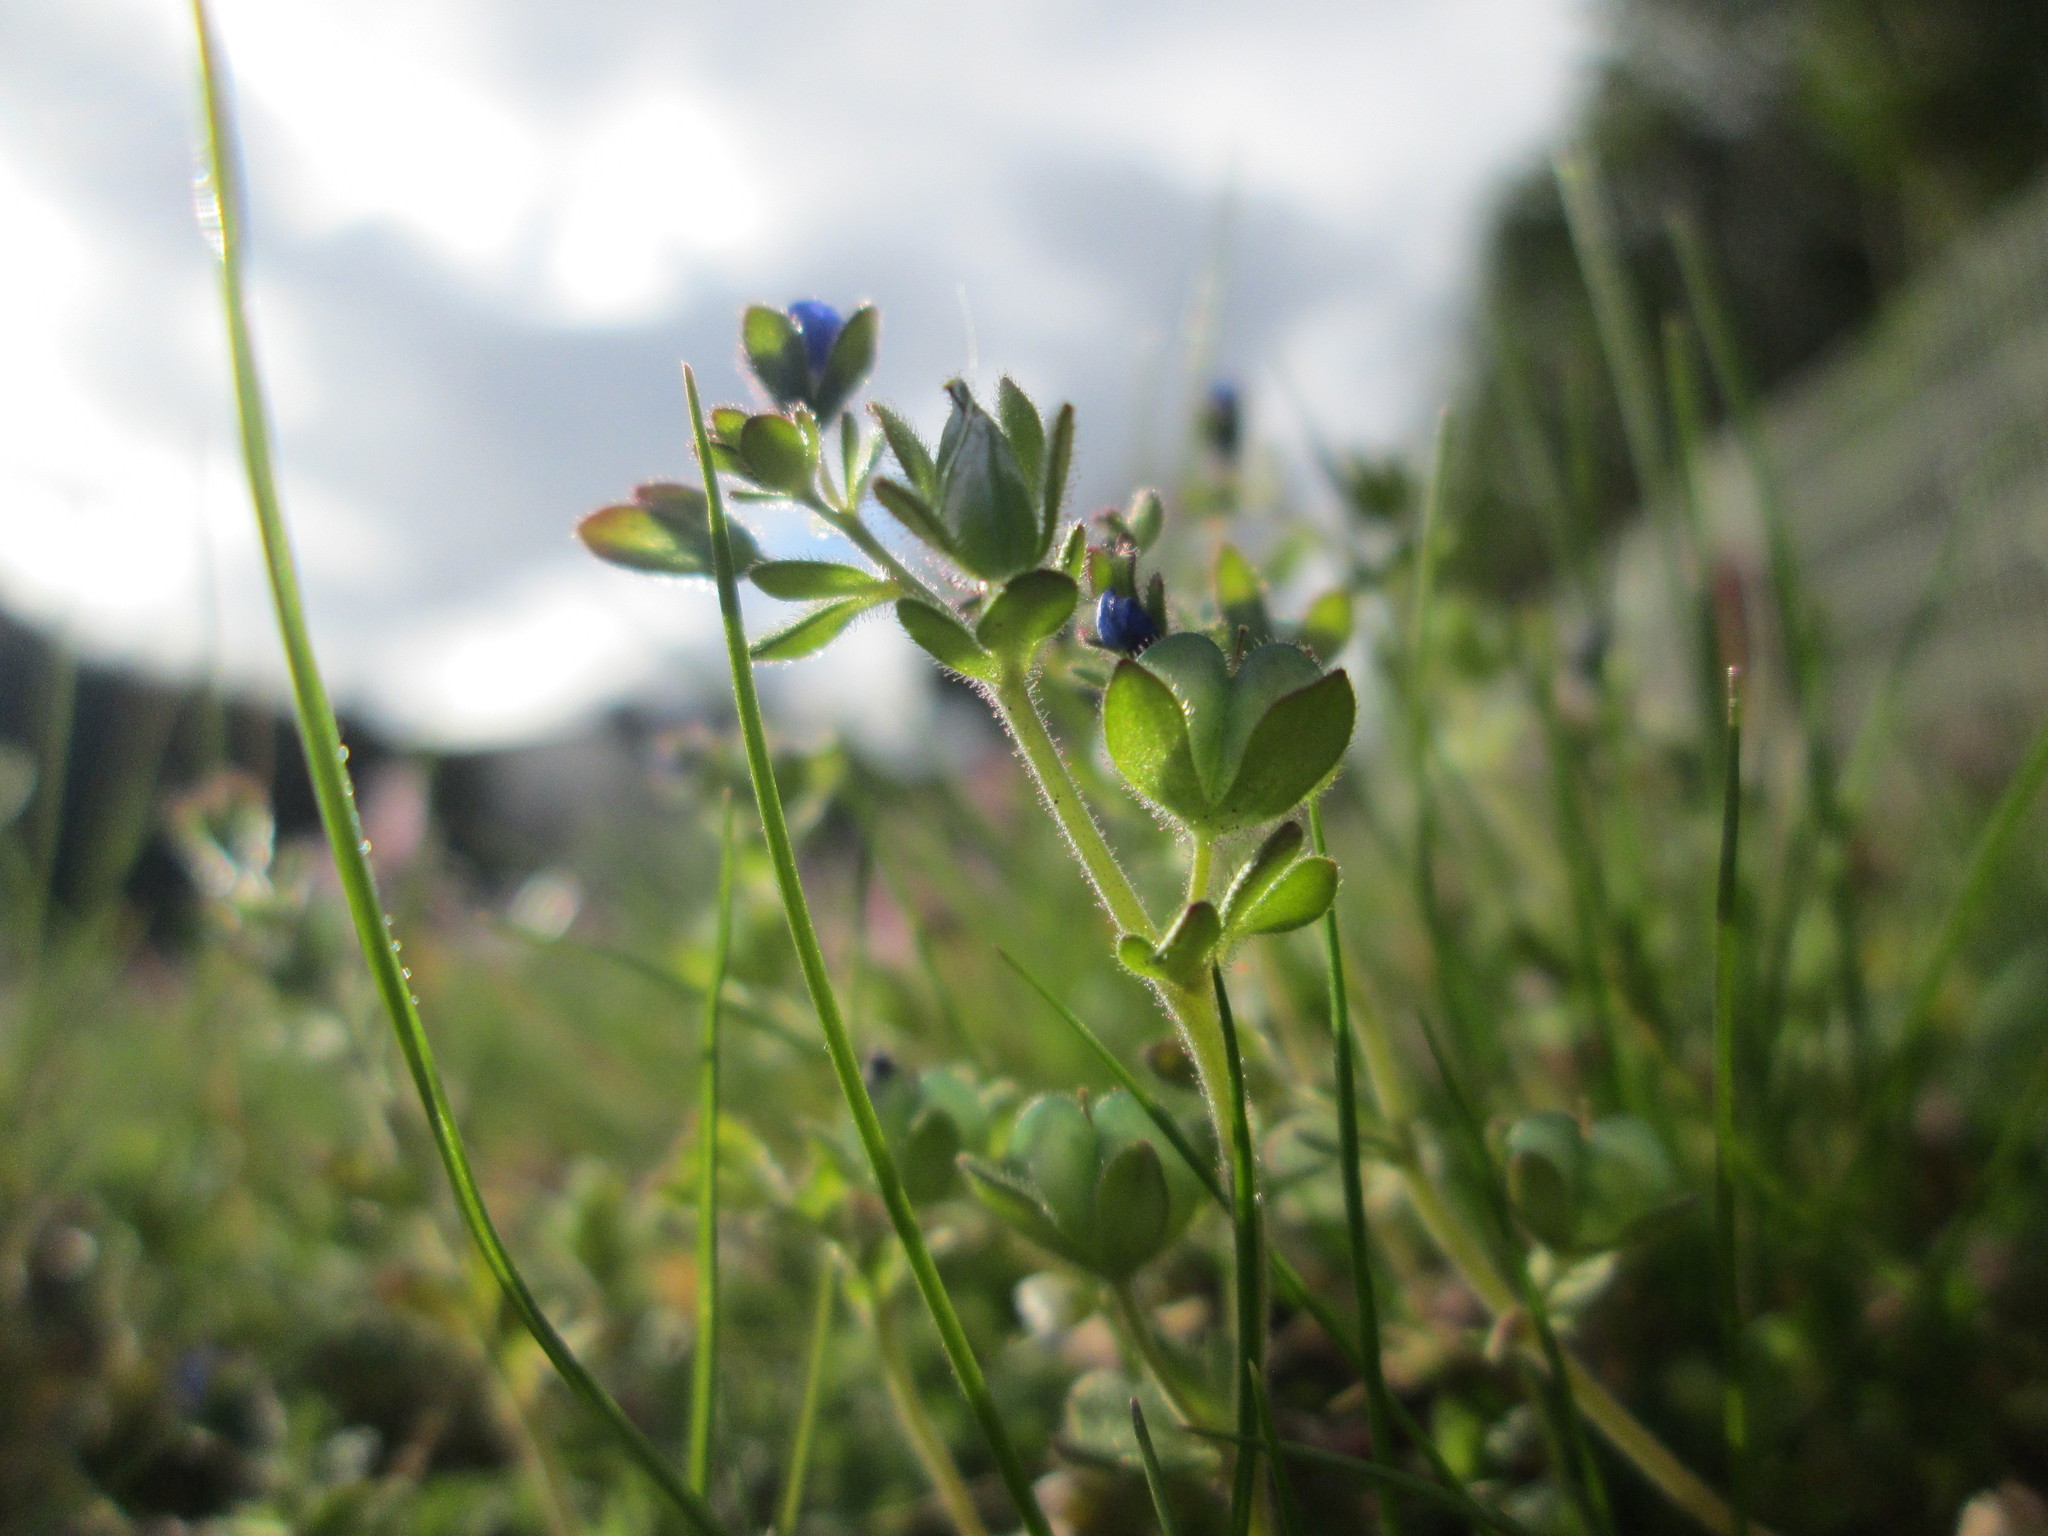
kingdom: Plantae
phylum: Tracheophyta
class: Magnoliopsida
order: Lamiales
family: Plantaginaceae
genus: Veronica
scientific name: Veronica triphyllos
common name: Fingered speedwell
